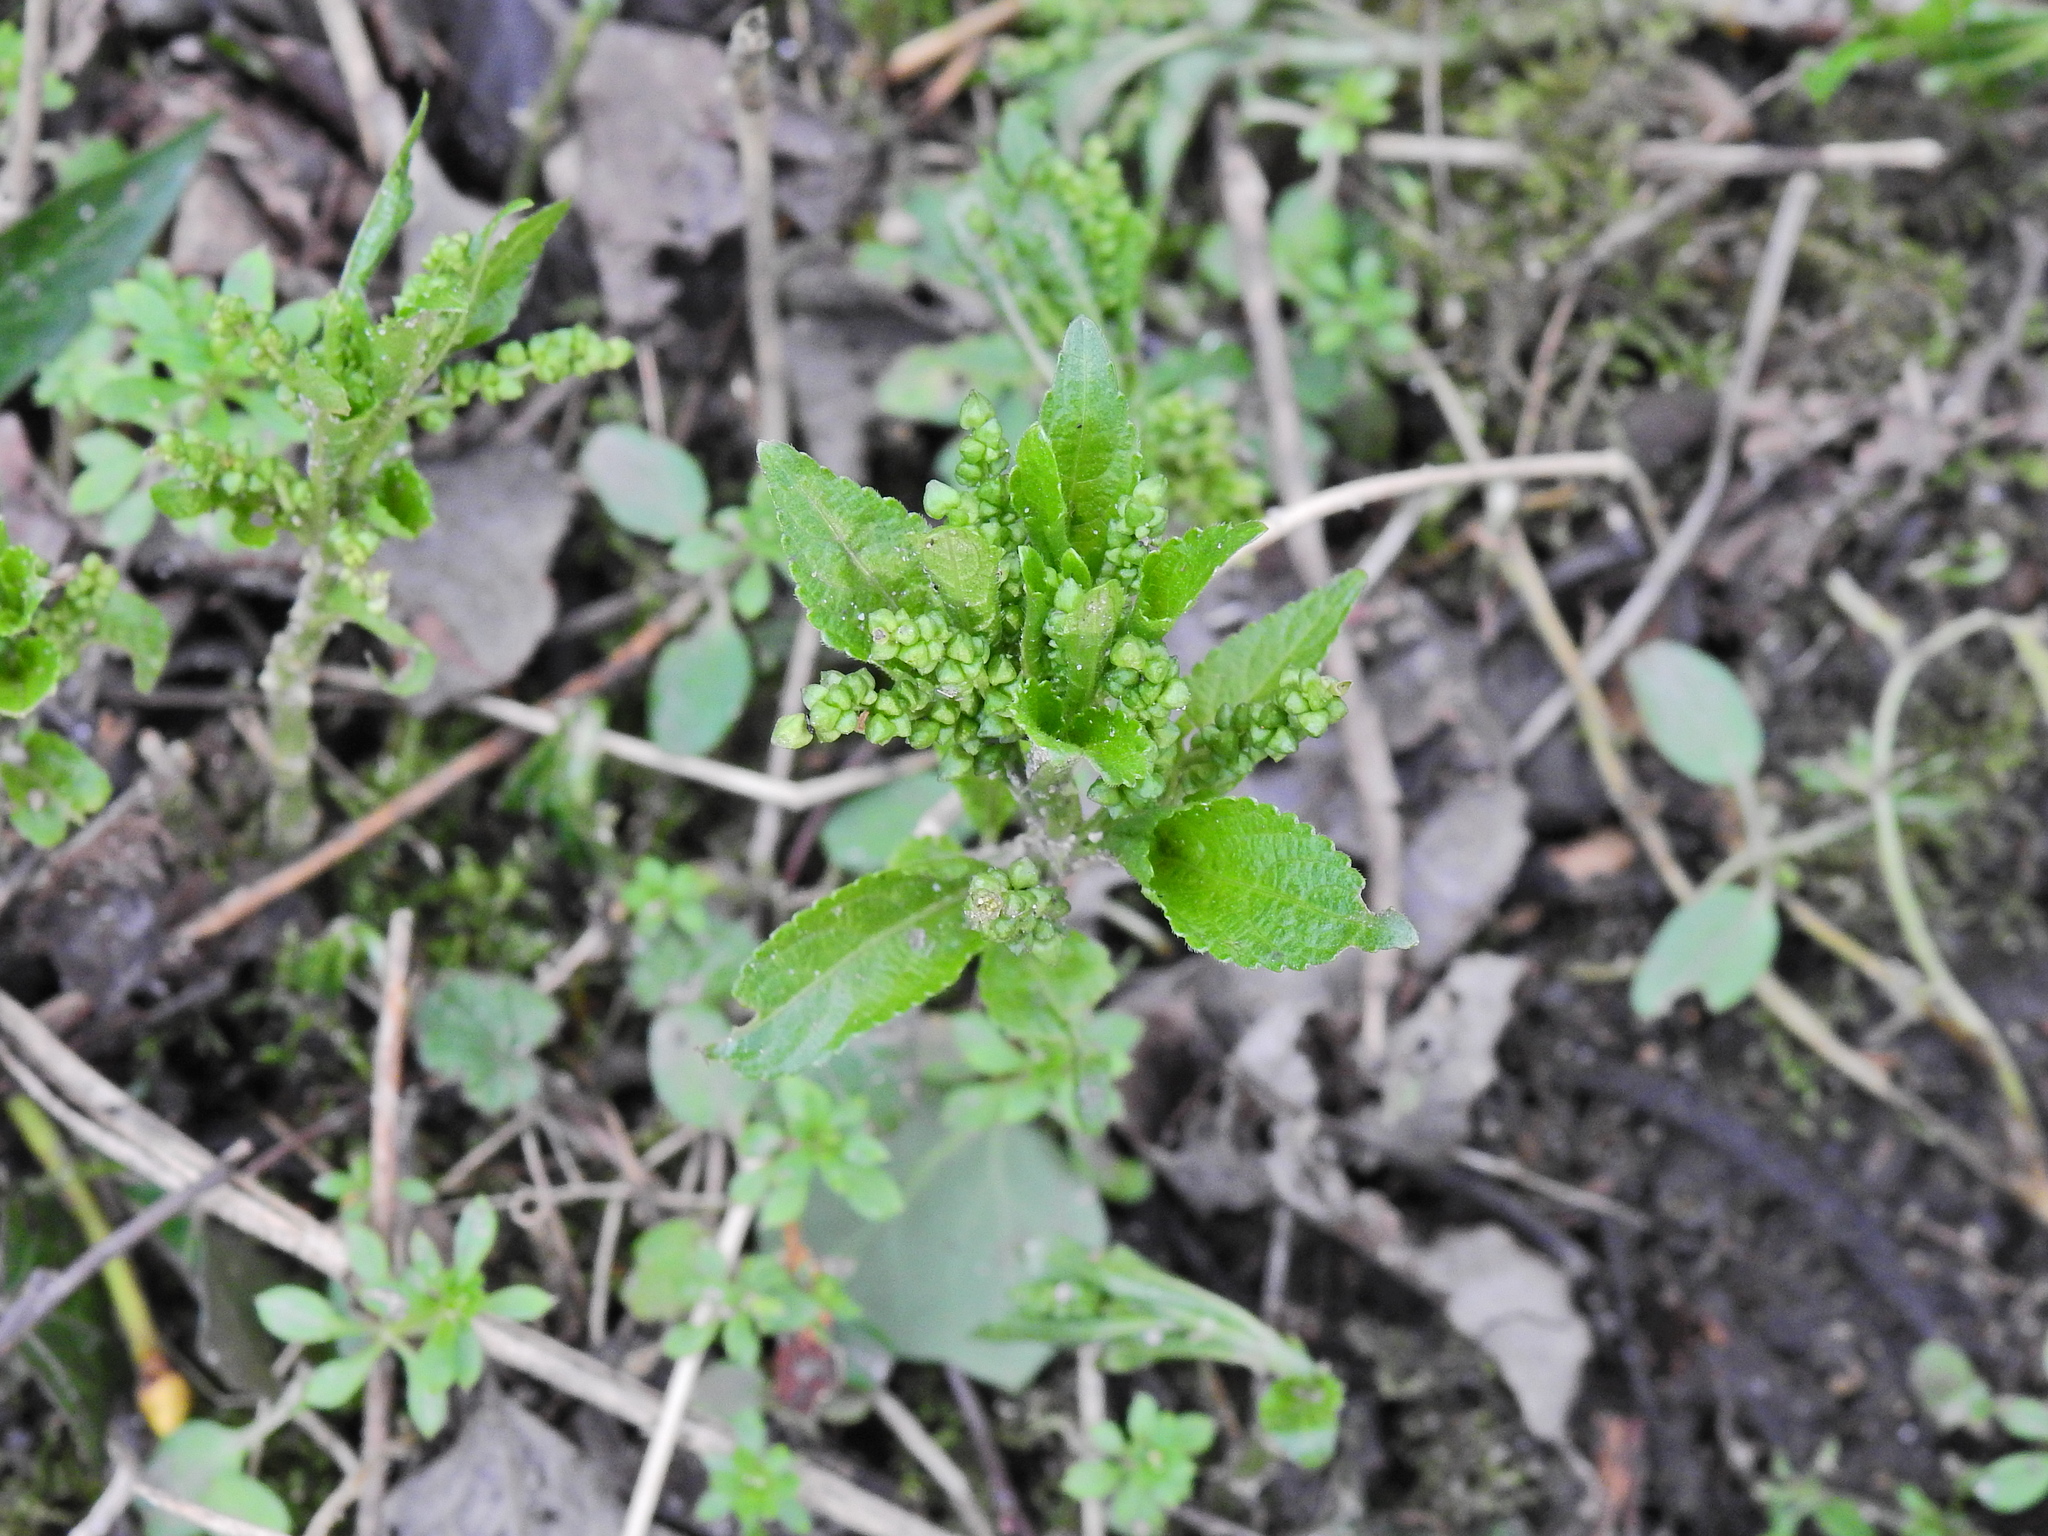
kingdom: Plantae
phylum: Tracheophyta
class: Magnoliopsida
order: Malpighiales
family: Euphorbiaceae
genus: Mercurialis
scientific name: Mercurialis perennis
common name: Dog mercury
